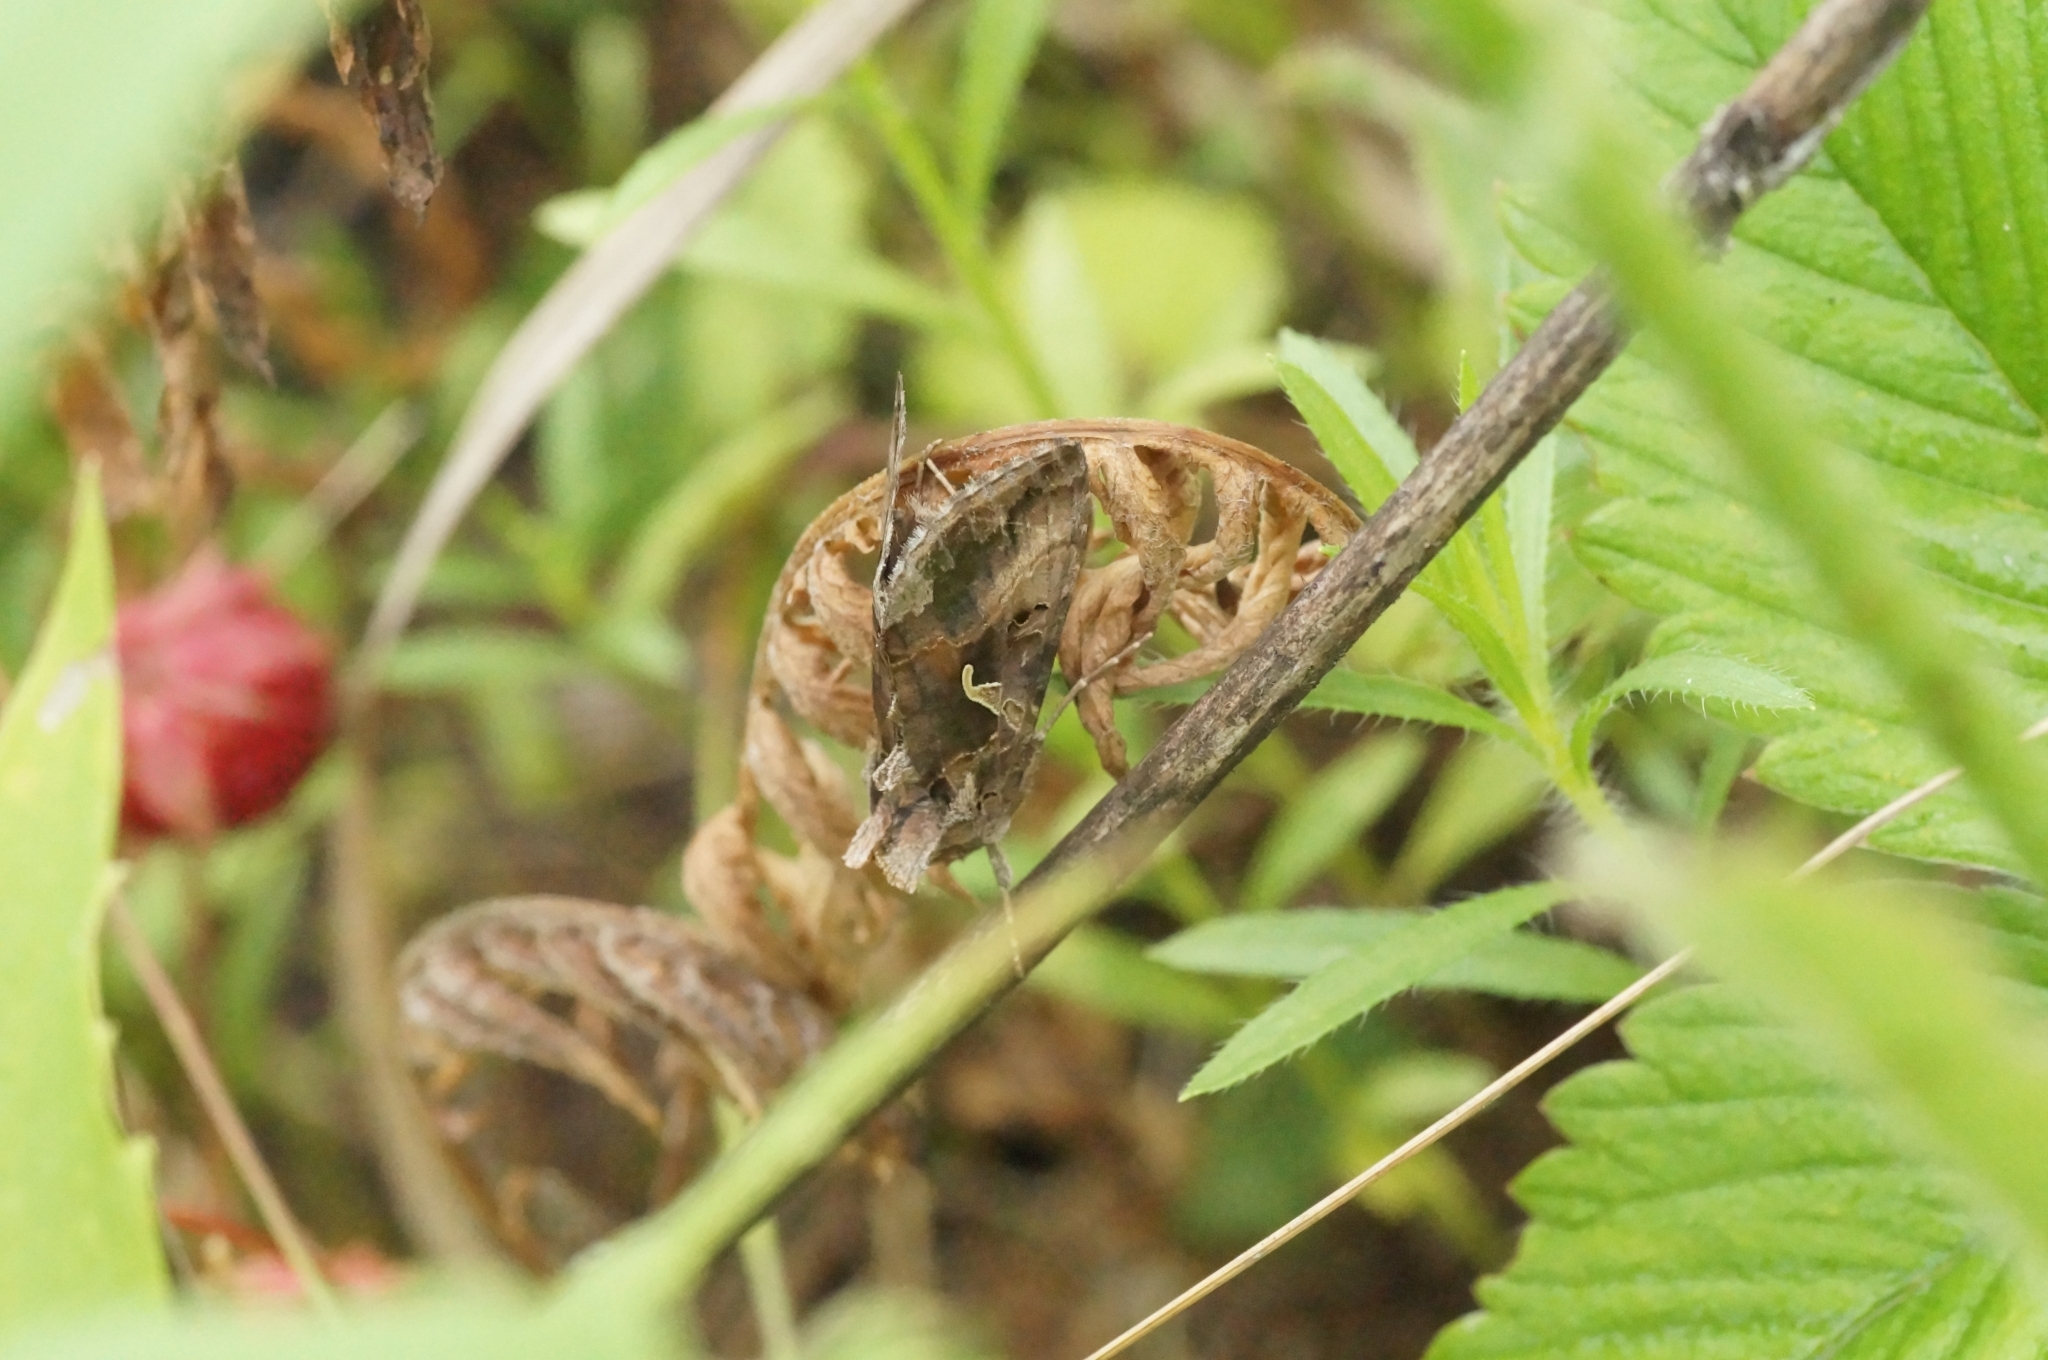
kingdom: Animalia
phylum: Arthropoda
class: Insecta
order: Lepidoptera
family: Noctuidae
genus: Autographa
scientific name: Autographa gamma
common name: Silver y
